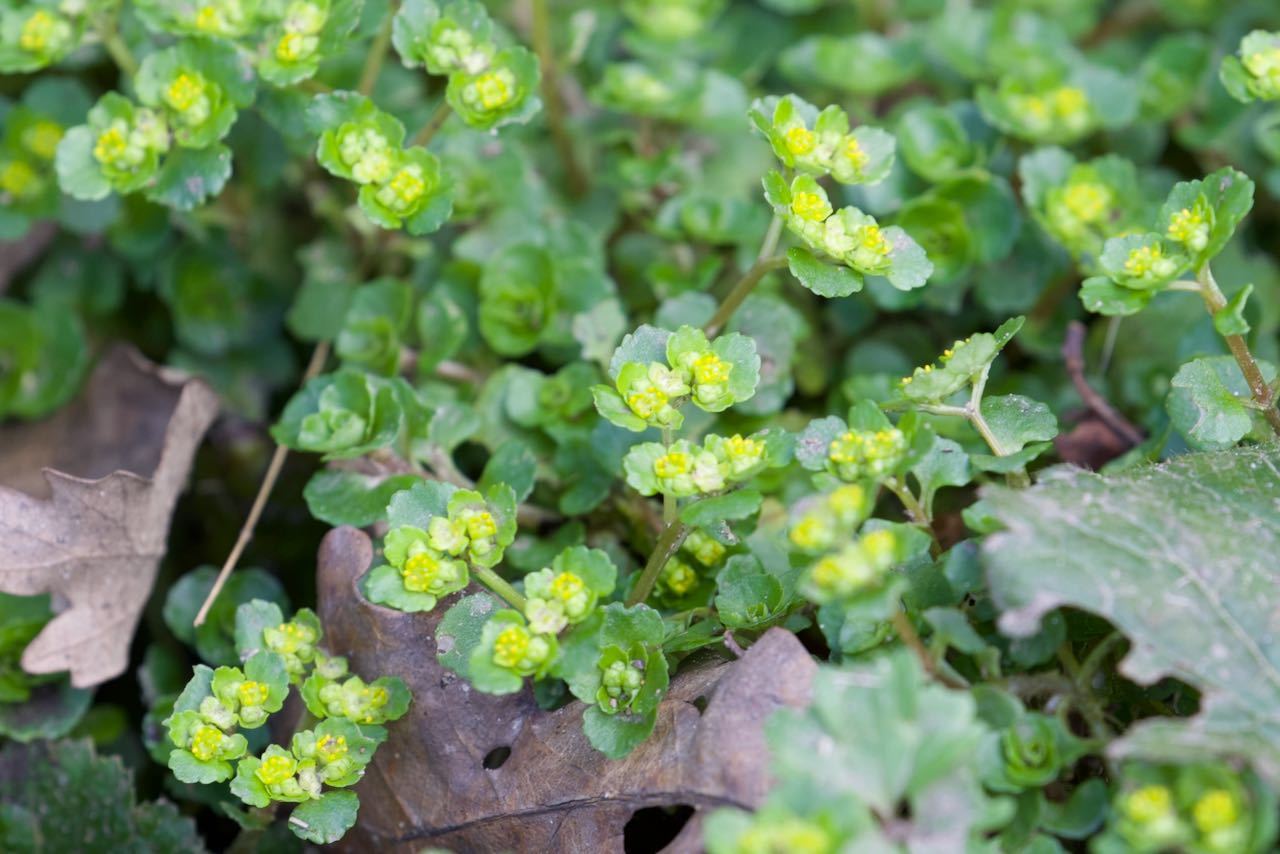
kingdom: Plantae
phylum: Tracheophyta
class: Magnoliopsida
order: Saxifragales
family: Saxifragaceae
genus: Chrysosplenium
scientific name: Chrysosplenium oppositifolium
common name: Opposite-leaved golden-saxifrage
